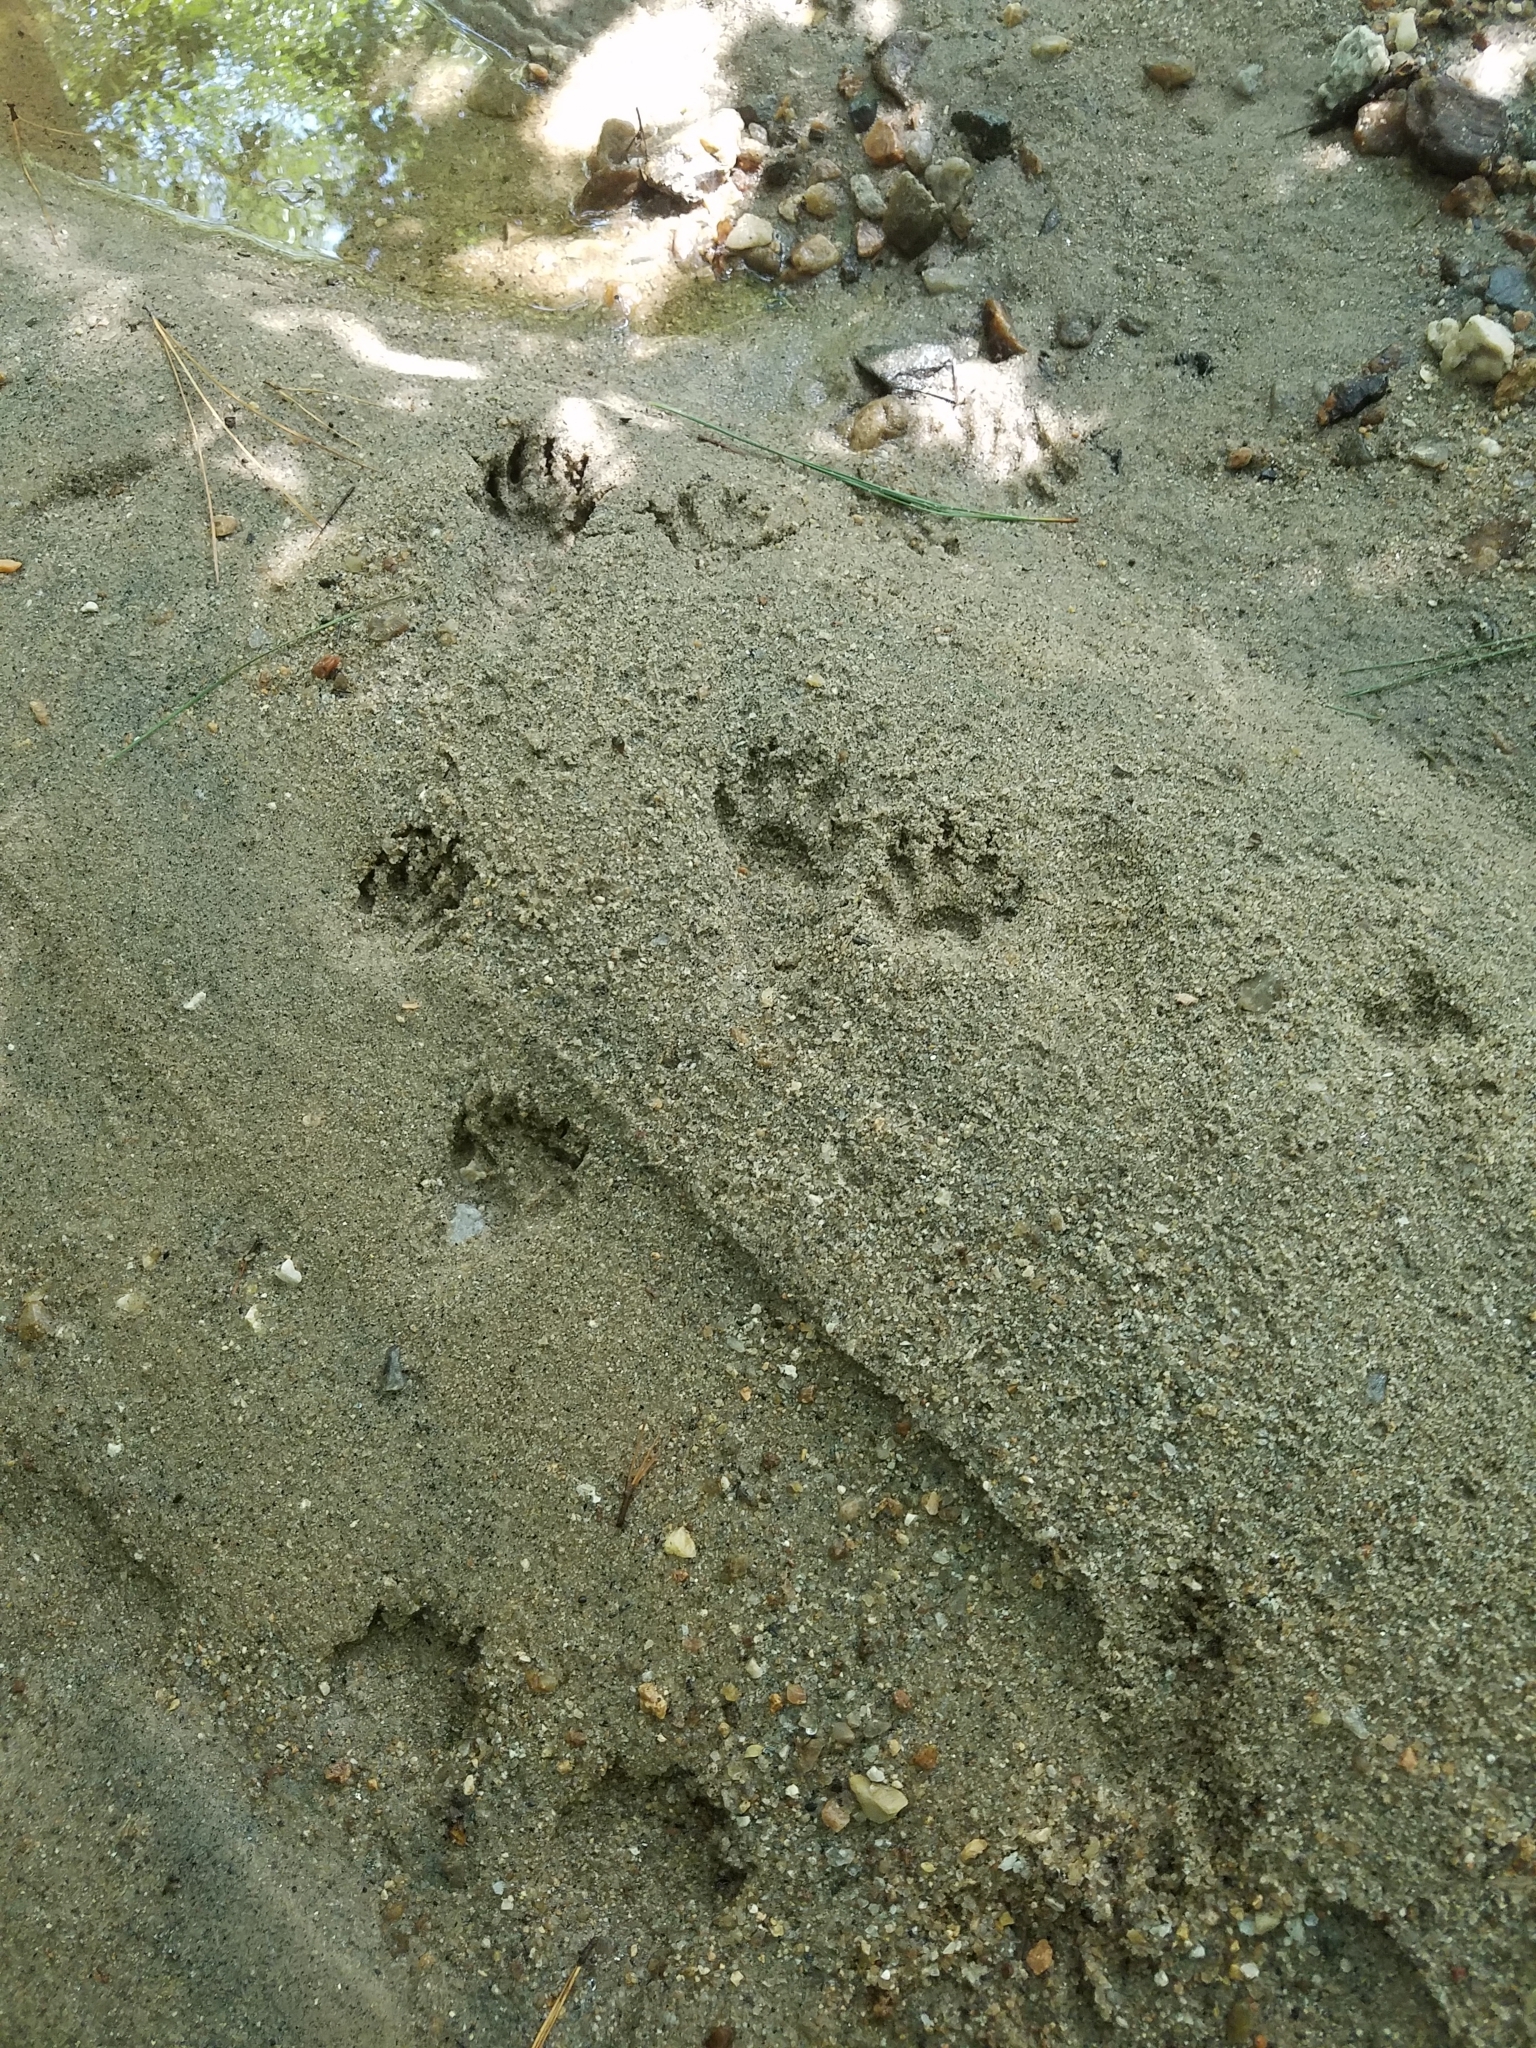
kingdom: Animalia
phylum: Chordata
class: Mammalia
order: Carnivora
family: Procyonidae
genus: Procyon
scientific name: Procyon lotor
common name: Raccoon
